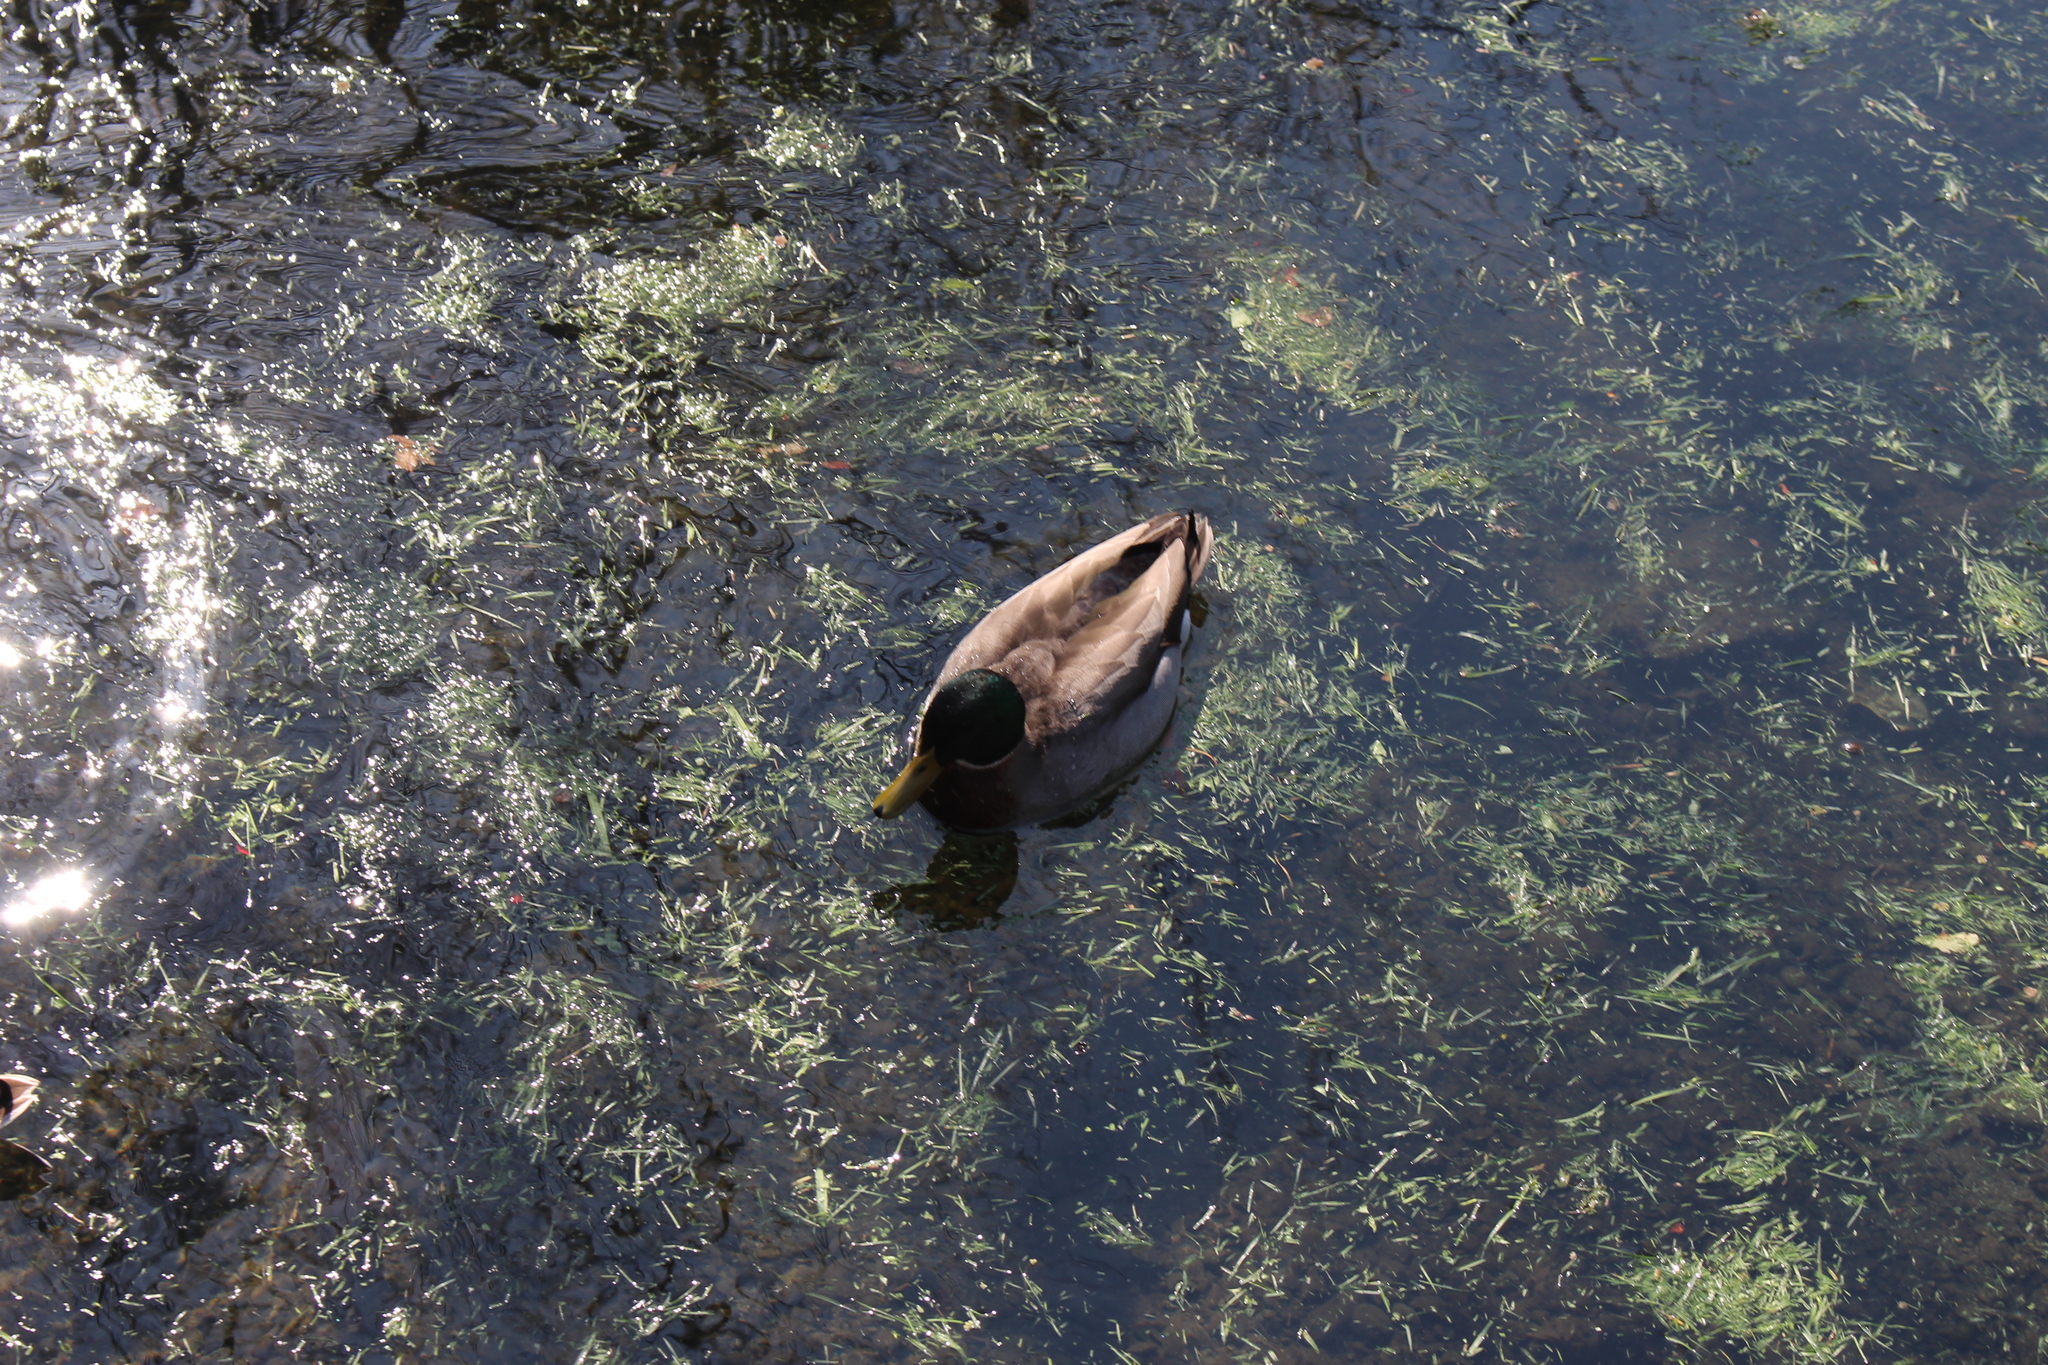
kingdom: Animalia
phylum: Chordata
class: Aves
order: Anseriformes
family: Anatidae
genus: Anas
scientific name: Anas platyrhynchos
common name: Mallard
